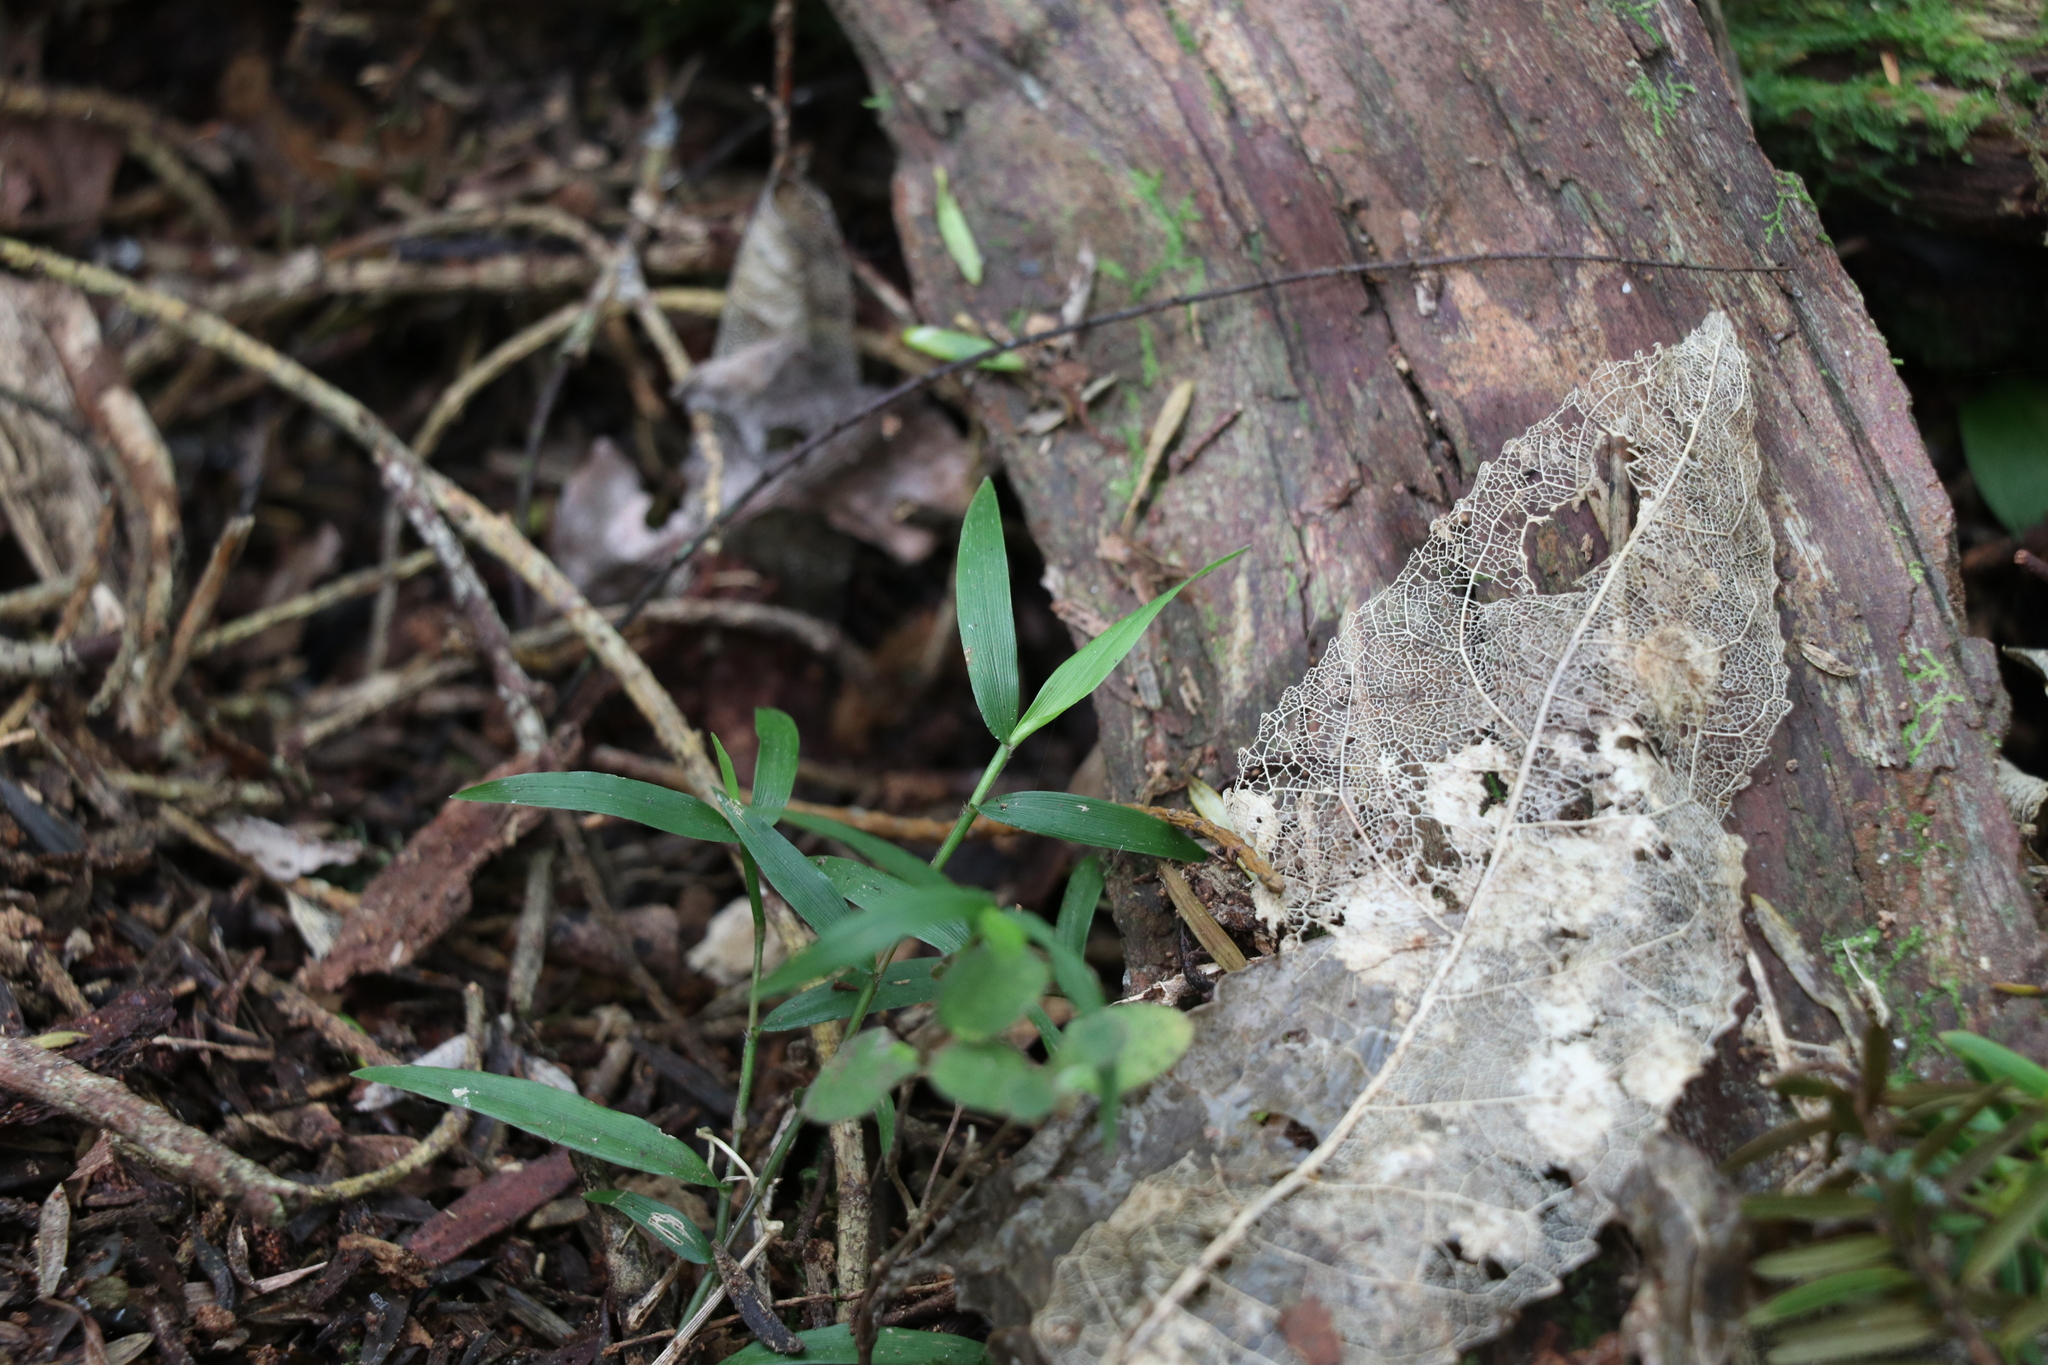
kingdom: Plantae
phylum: Tracheophyta
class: Liliopsida
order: Poales
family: Poaceae
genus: Oplismenus
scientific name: Oplismenus hirtellus
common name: Basketgrass
